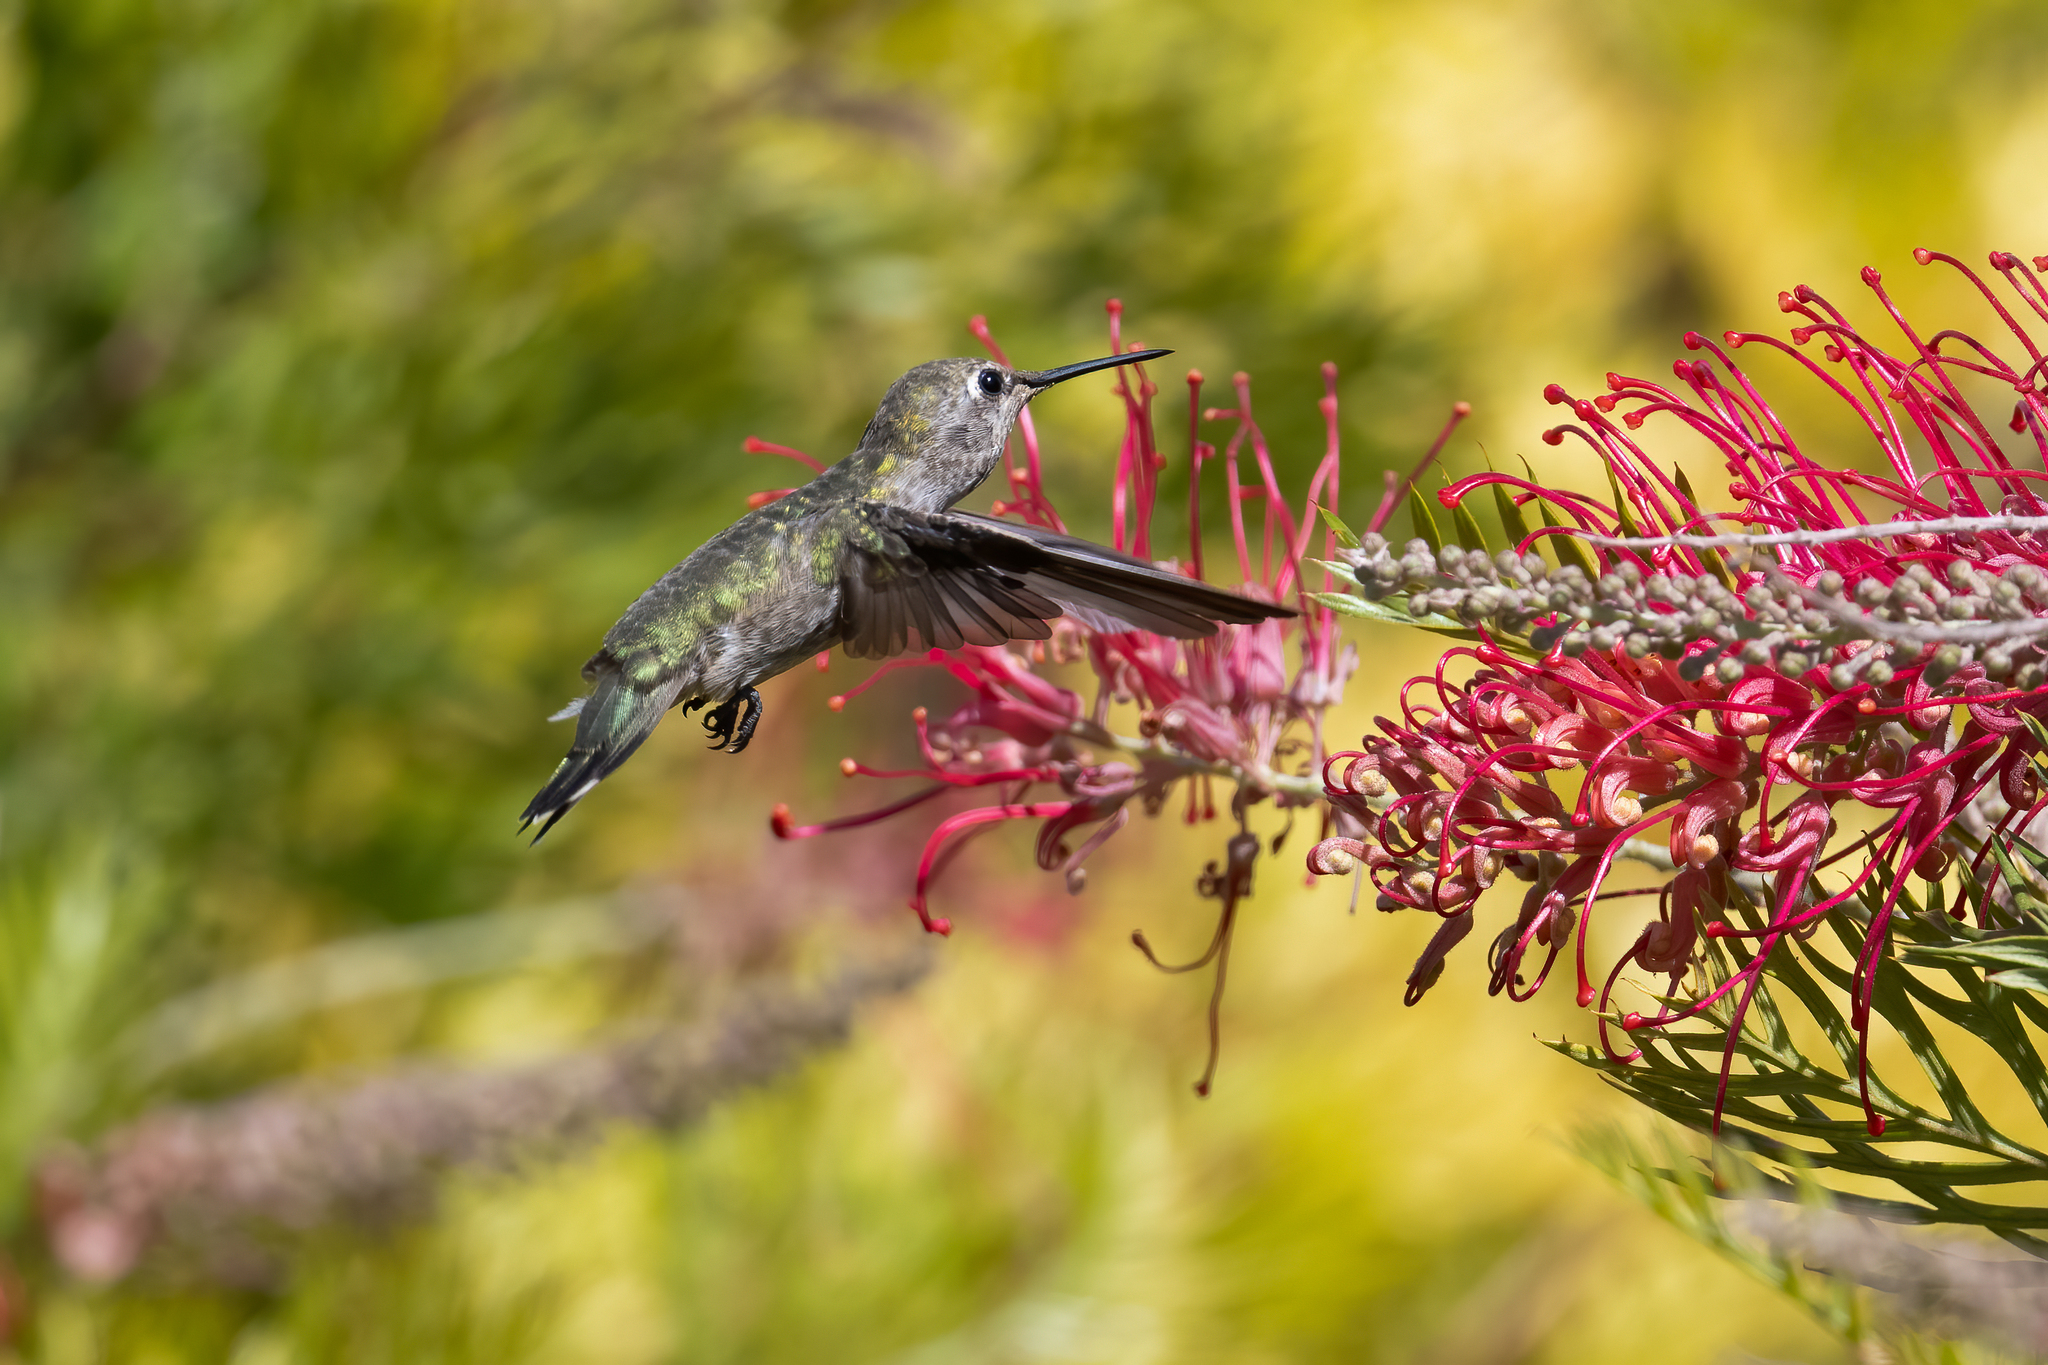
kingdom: Animalia
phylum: Chordata
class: Aves
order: Apodiformes
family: Trochilidae
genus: Calypte
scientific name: Calypte anna
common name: Anna's hummingbird
